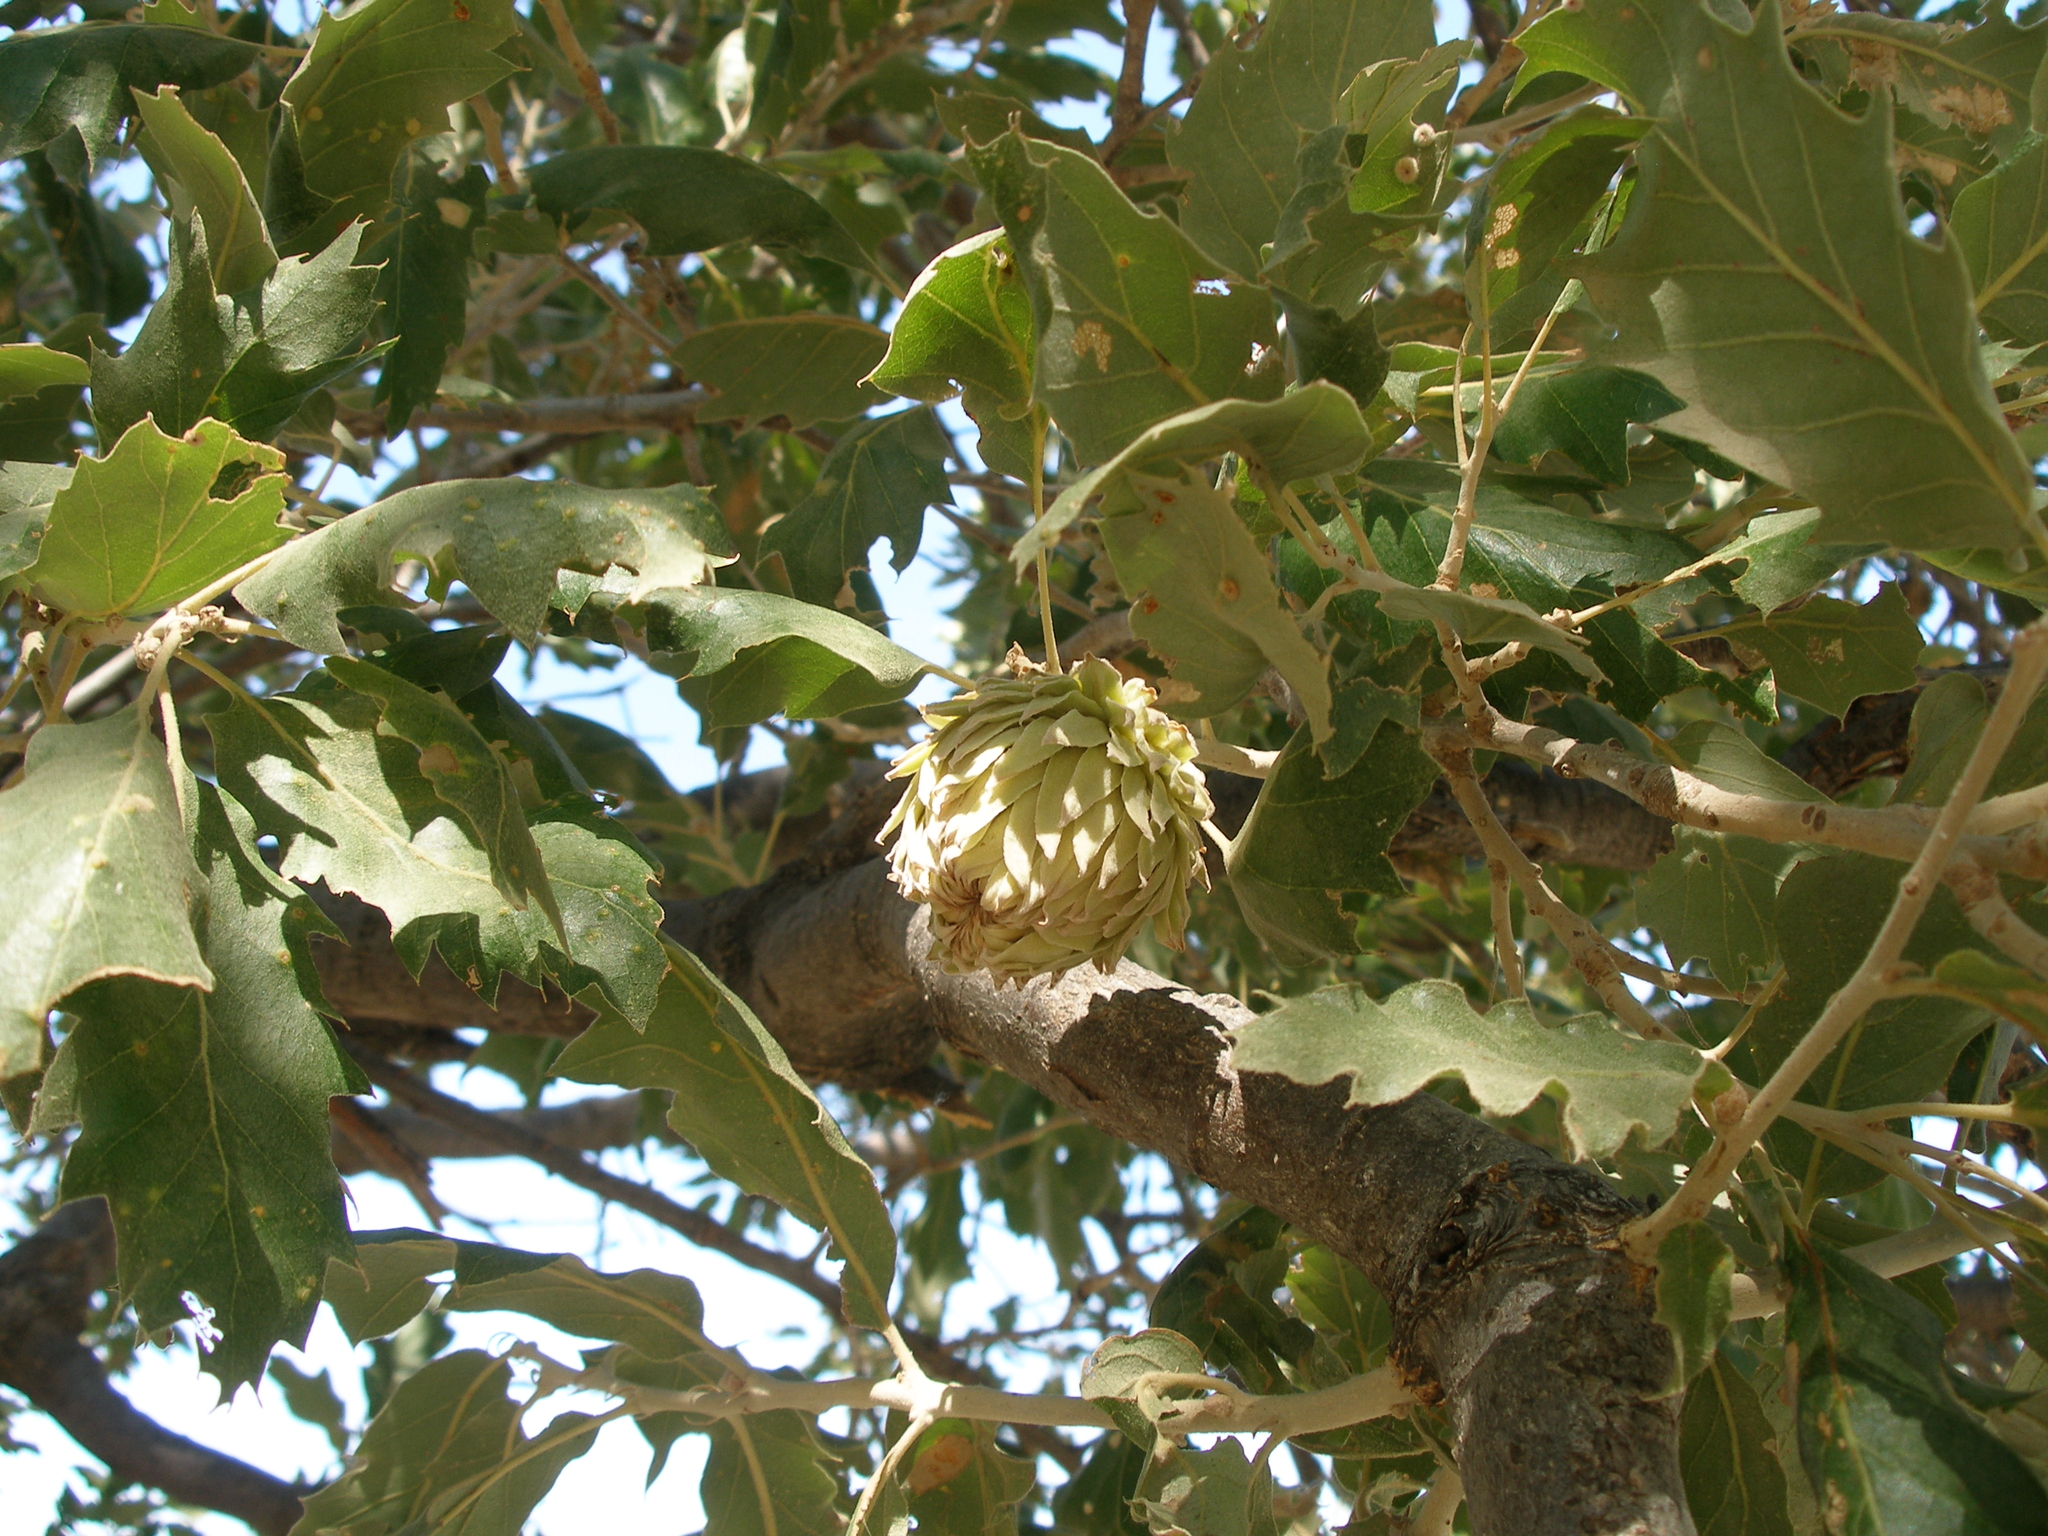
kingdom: Plantae
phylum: Tracheophyta
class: Magnoliopsida
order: Fagales
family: Fagaceae
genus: Quercus
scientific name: Quercus ithaburensis
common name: Tabor oak
